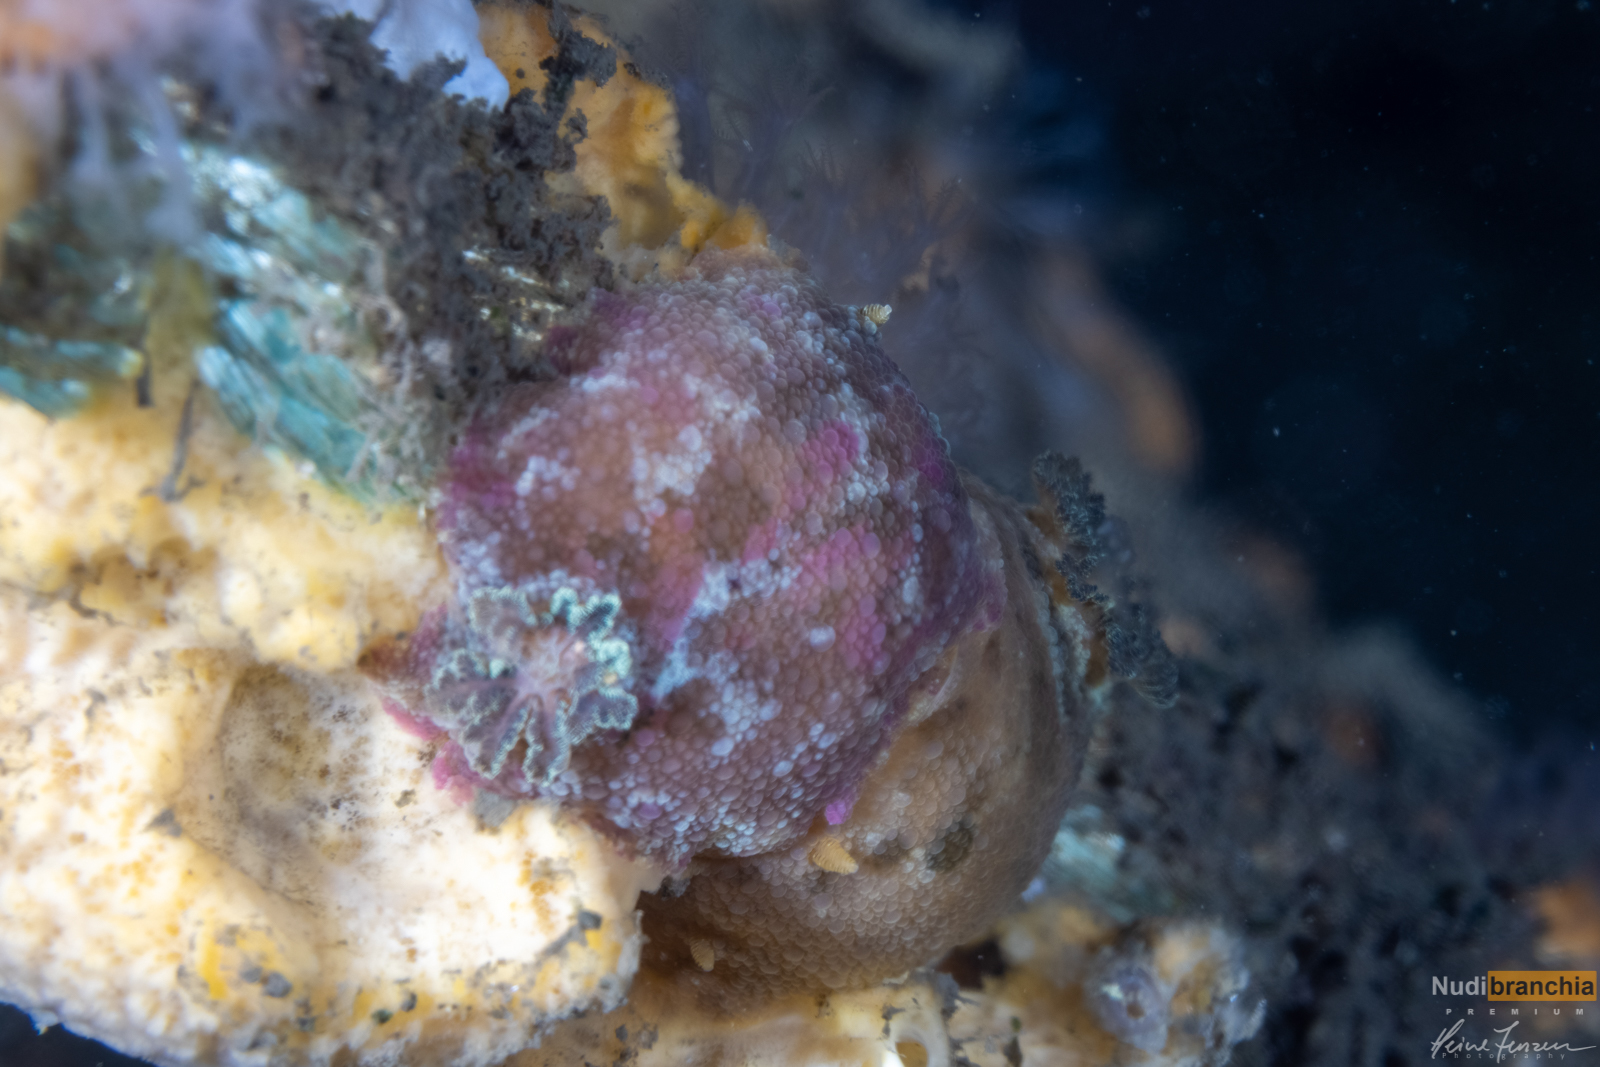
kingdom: Animalia
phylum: Mollusca
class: Gastropoda
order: Nudibranchia
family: Dorididae
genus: Doris
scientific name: Doris pseudoargus
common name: Sea lemon
